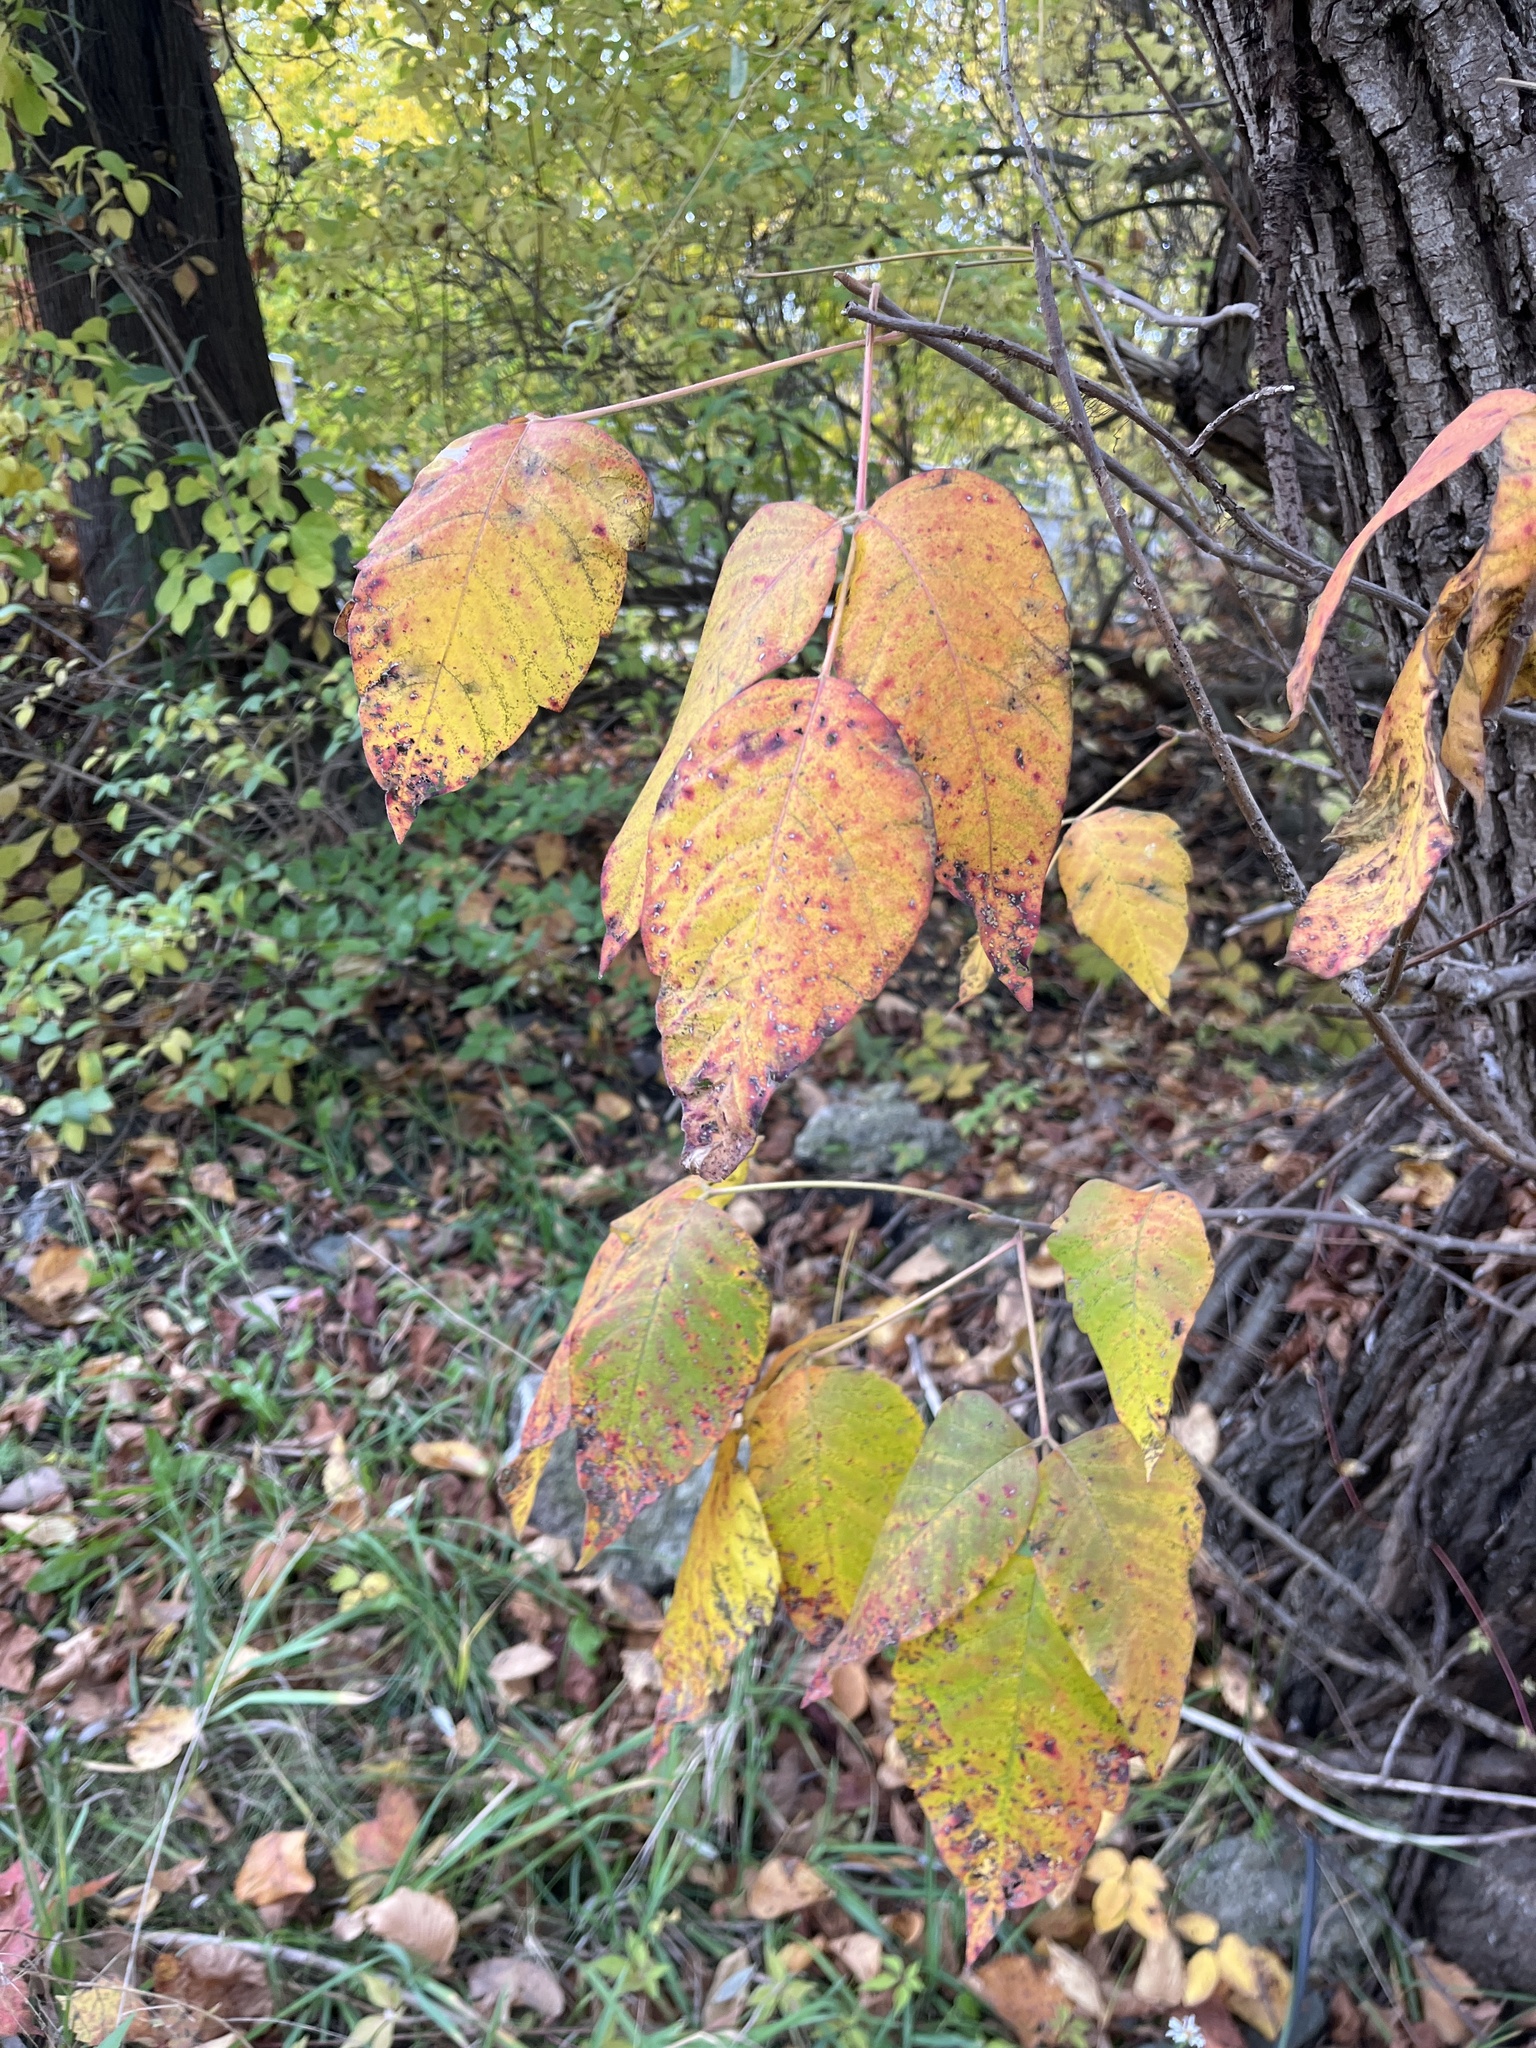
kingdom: Plantae
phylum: Tracheophyta
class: Magnoliopsida
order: Sapindales
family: Anacardiaceae
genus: Toxicodendron
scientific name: Toxicodendron radicans
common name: Poison ivy
